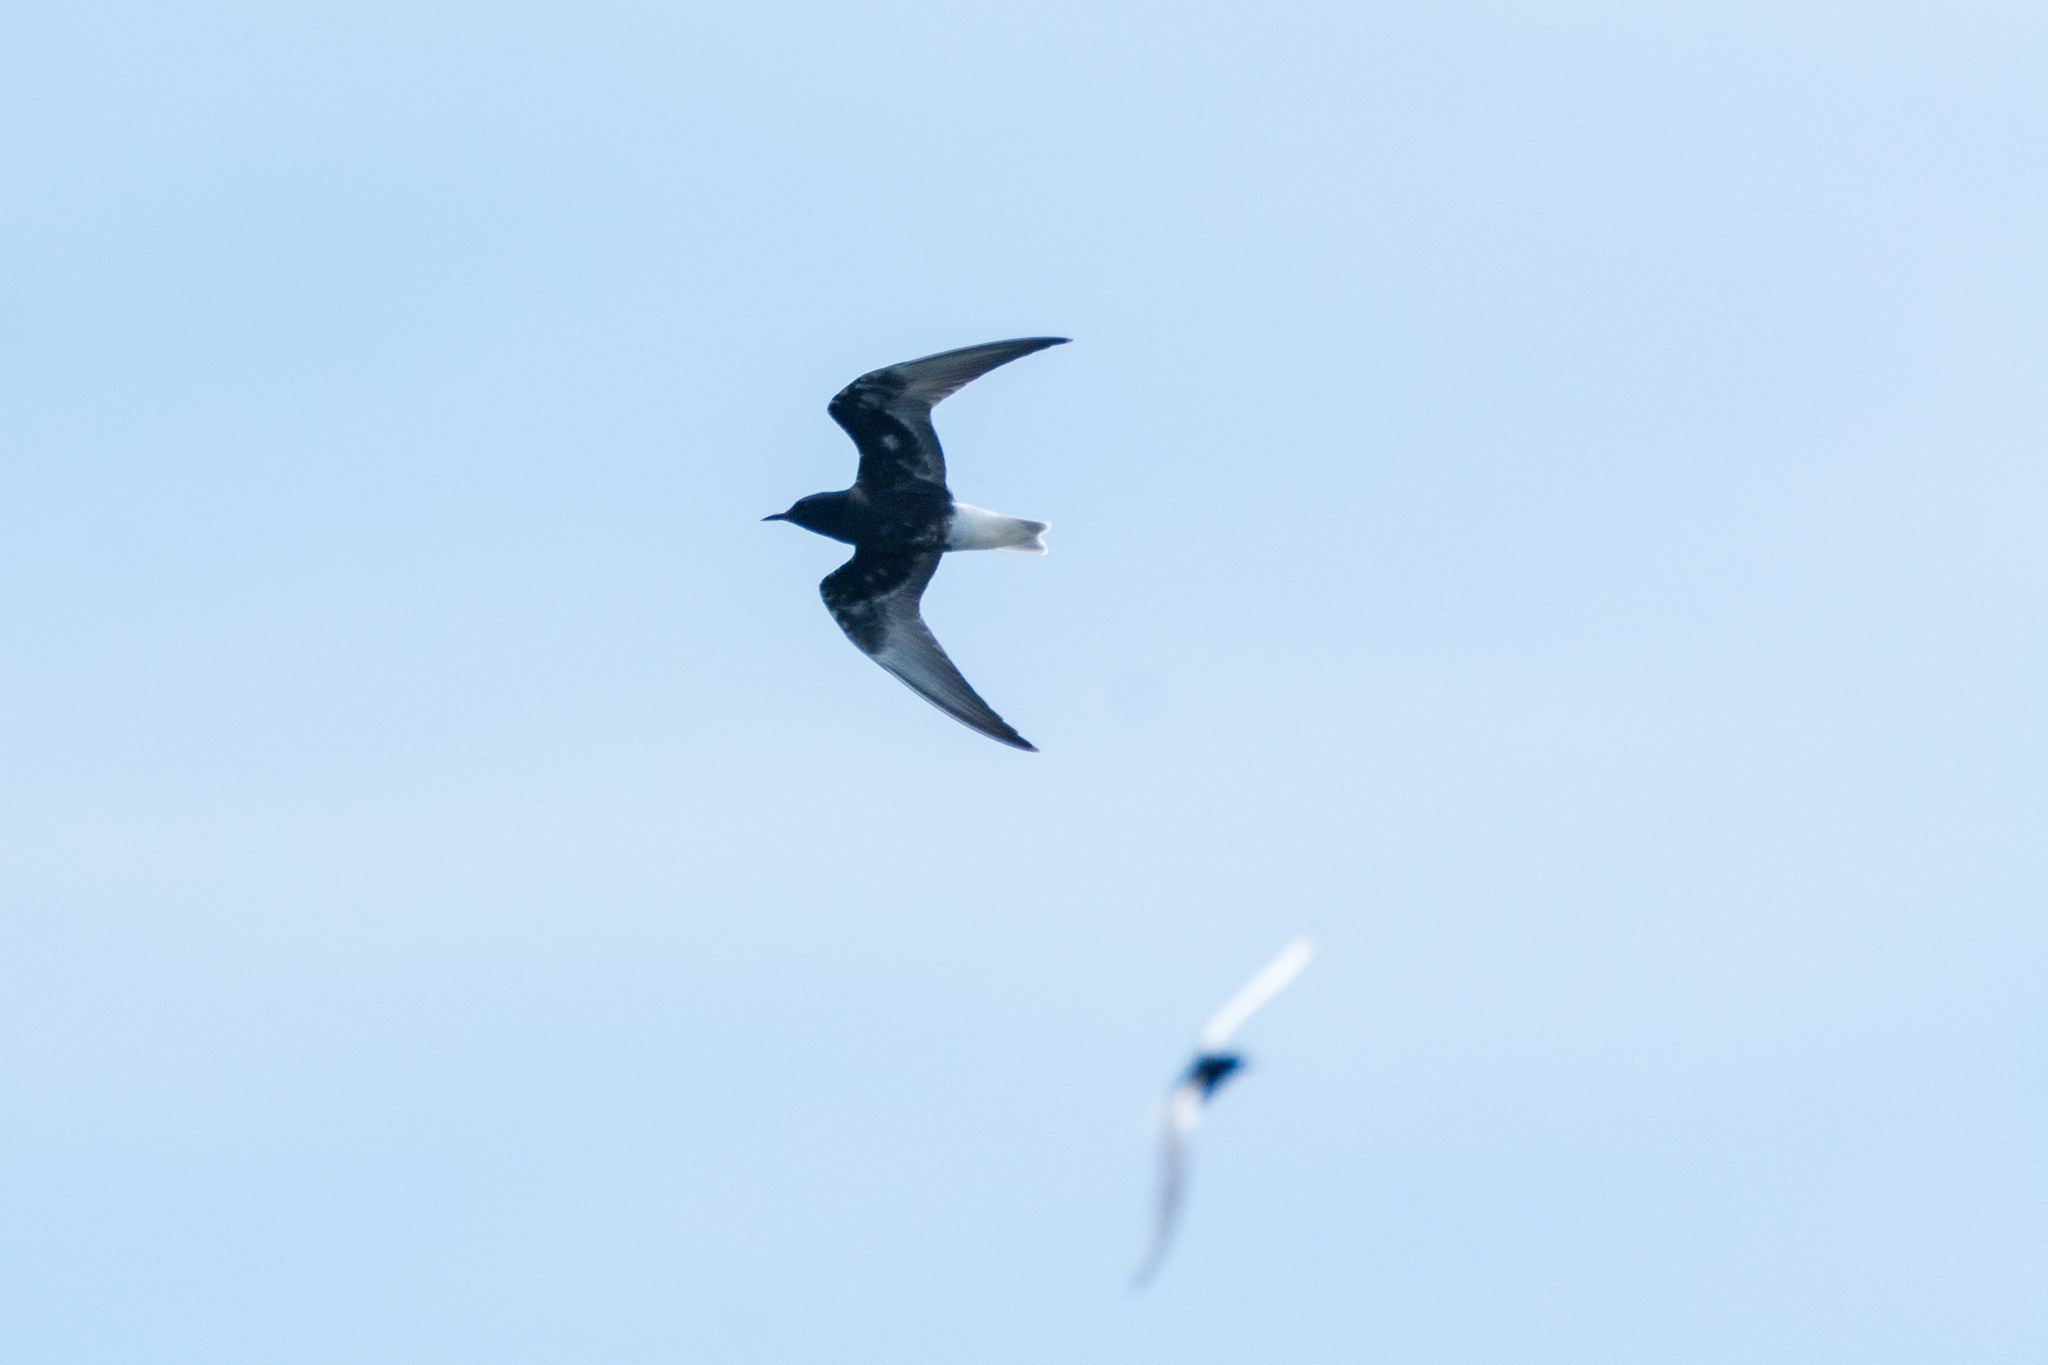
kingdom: Animalia
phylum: Chordata
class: Aves
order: Charadriiformes
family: Laridae
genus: Chlidonias
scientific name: Chlidonias leucopterus
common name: White-winged tern
